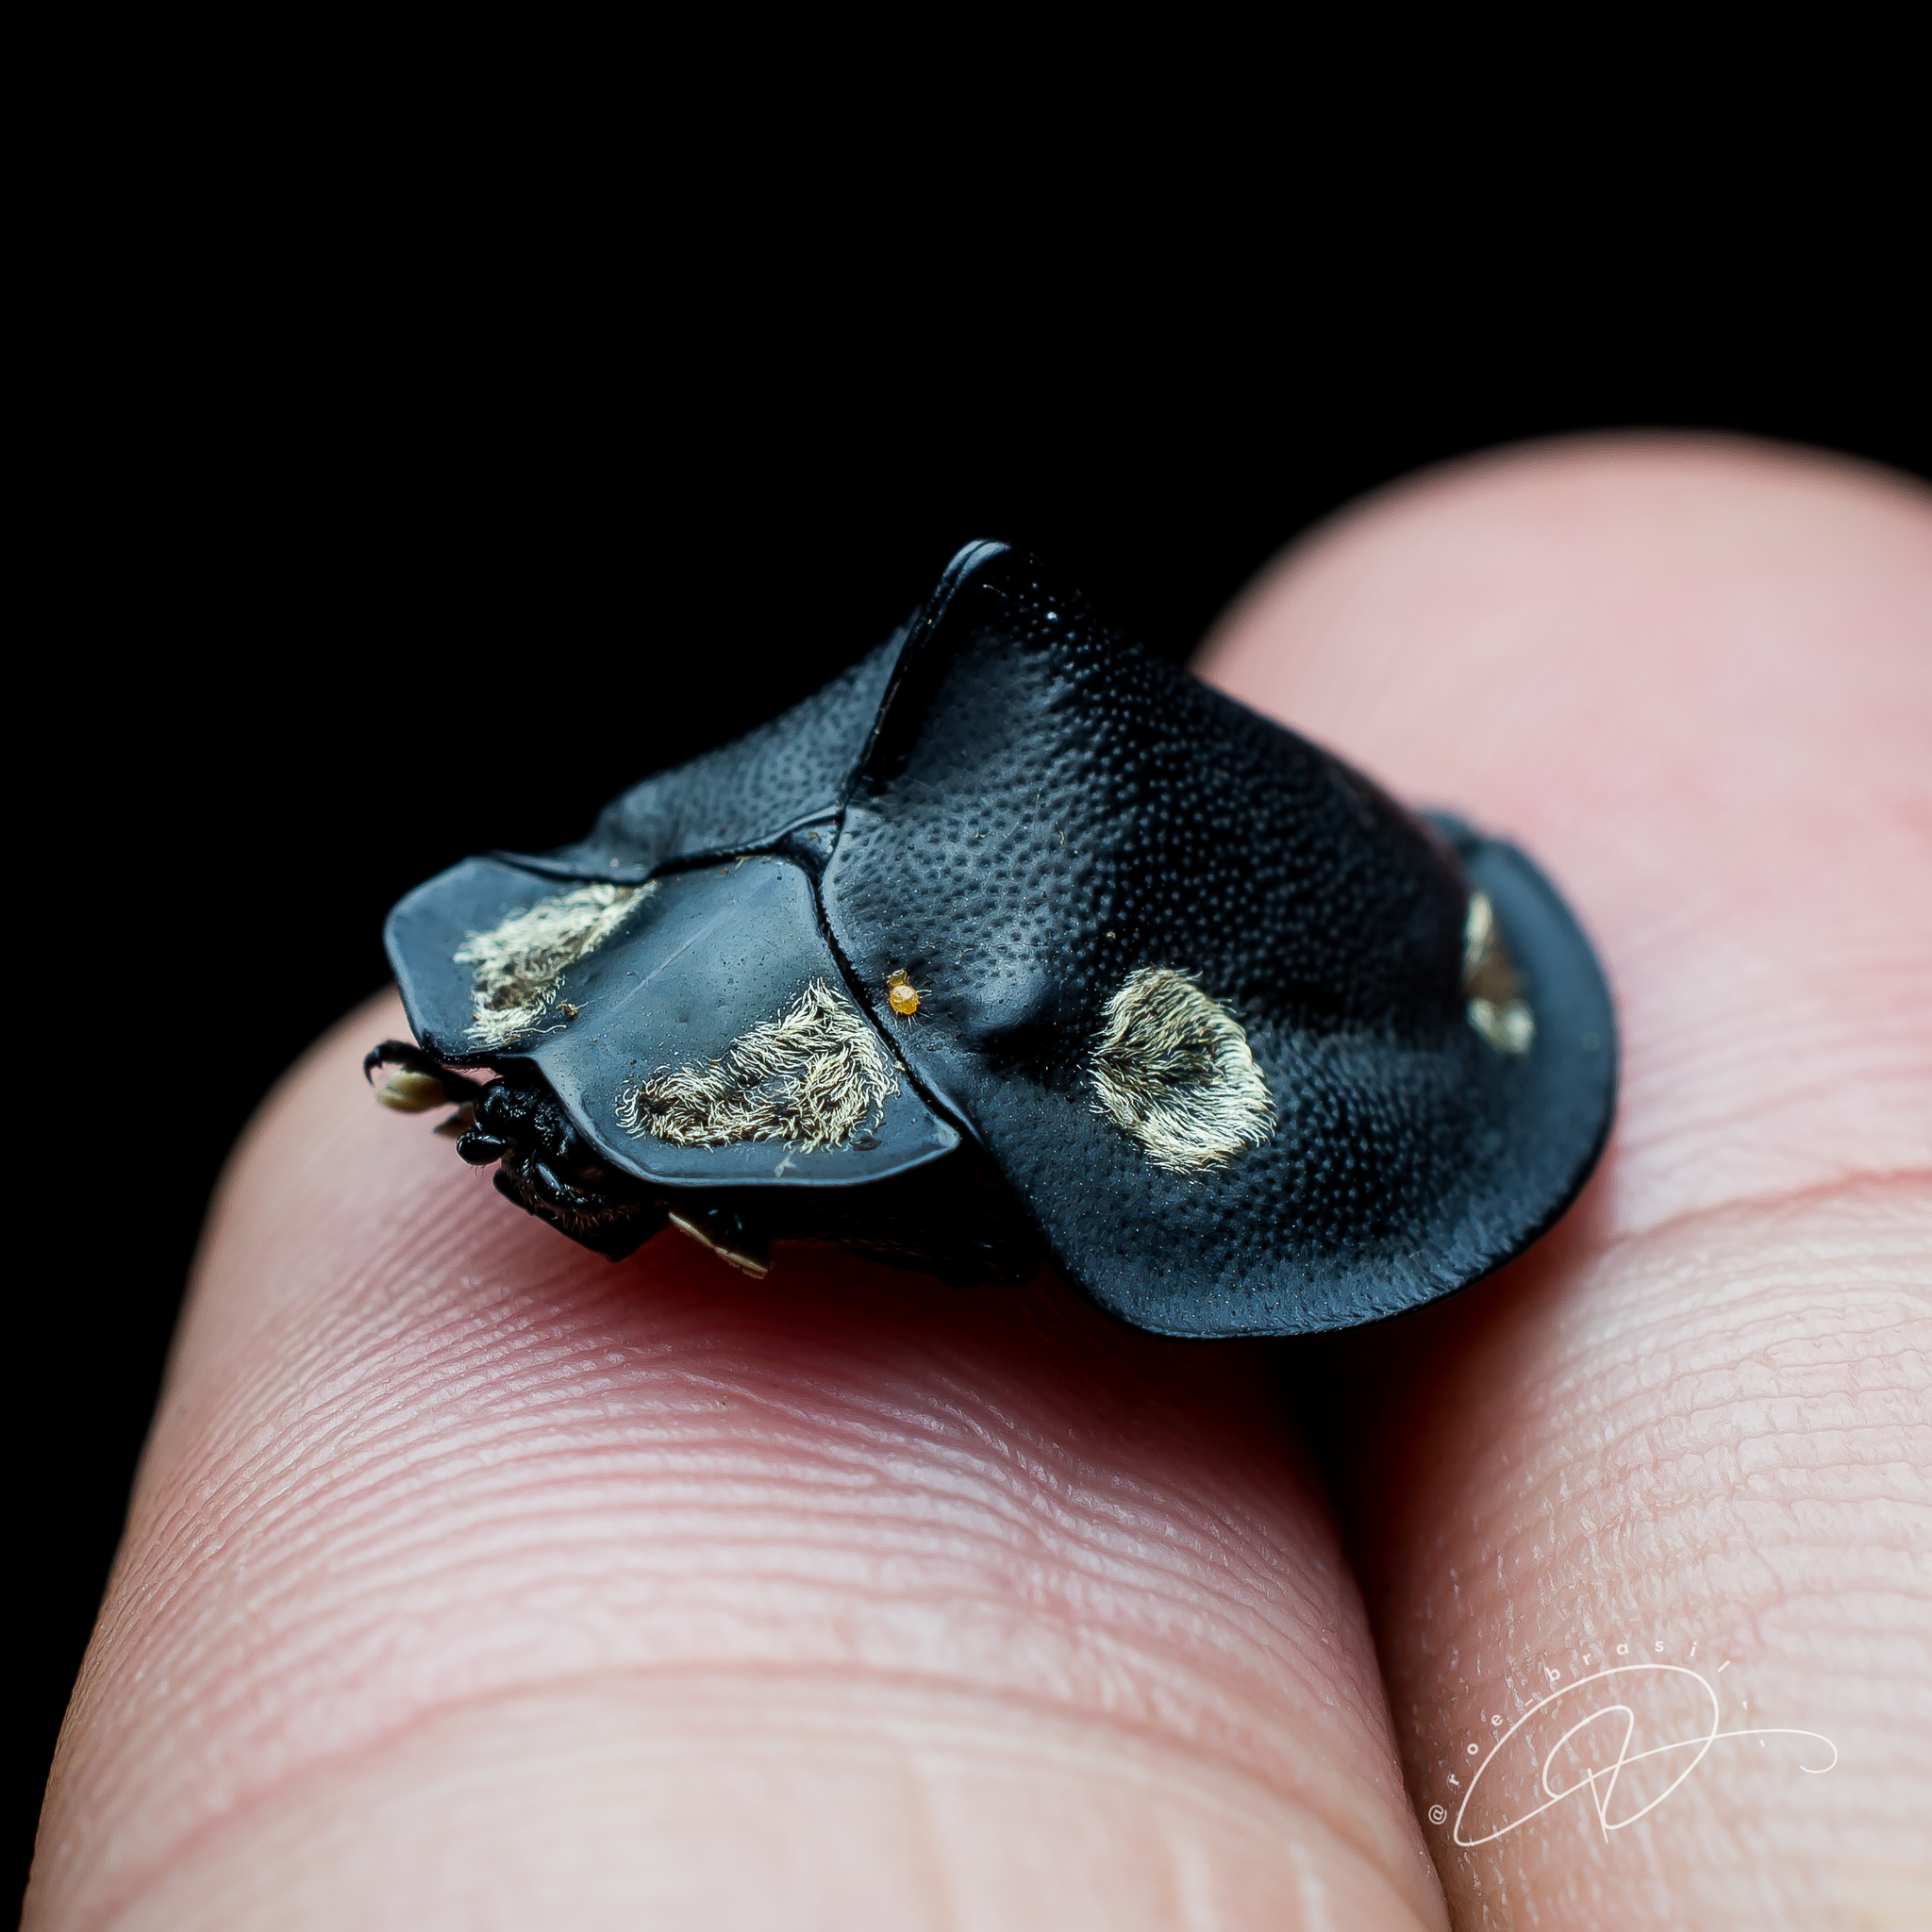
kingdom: Animalia
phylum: Arthropoda
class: Insecta
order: Coleoptera
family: Chrysomelidae
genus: Mesomphalia
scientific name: Mesomphalia turrita
